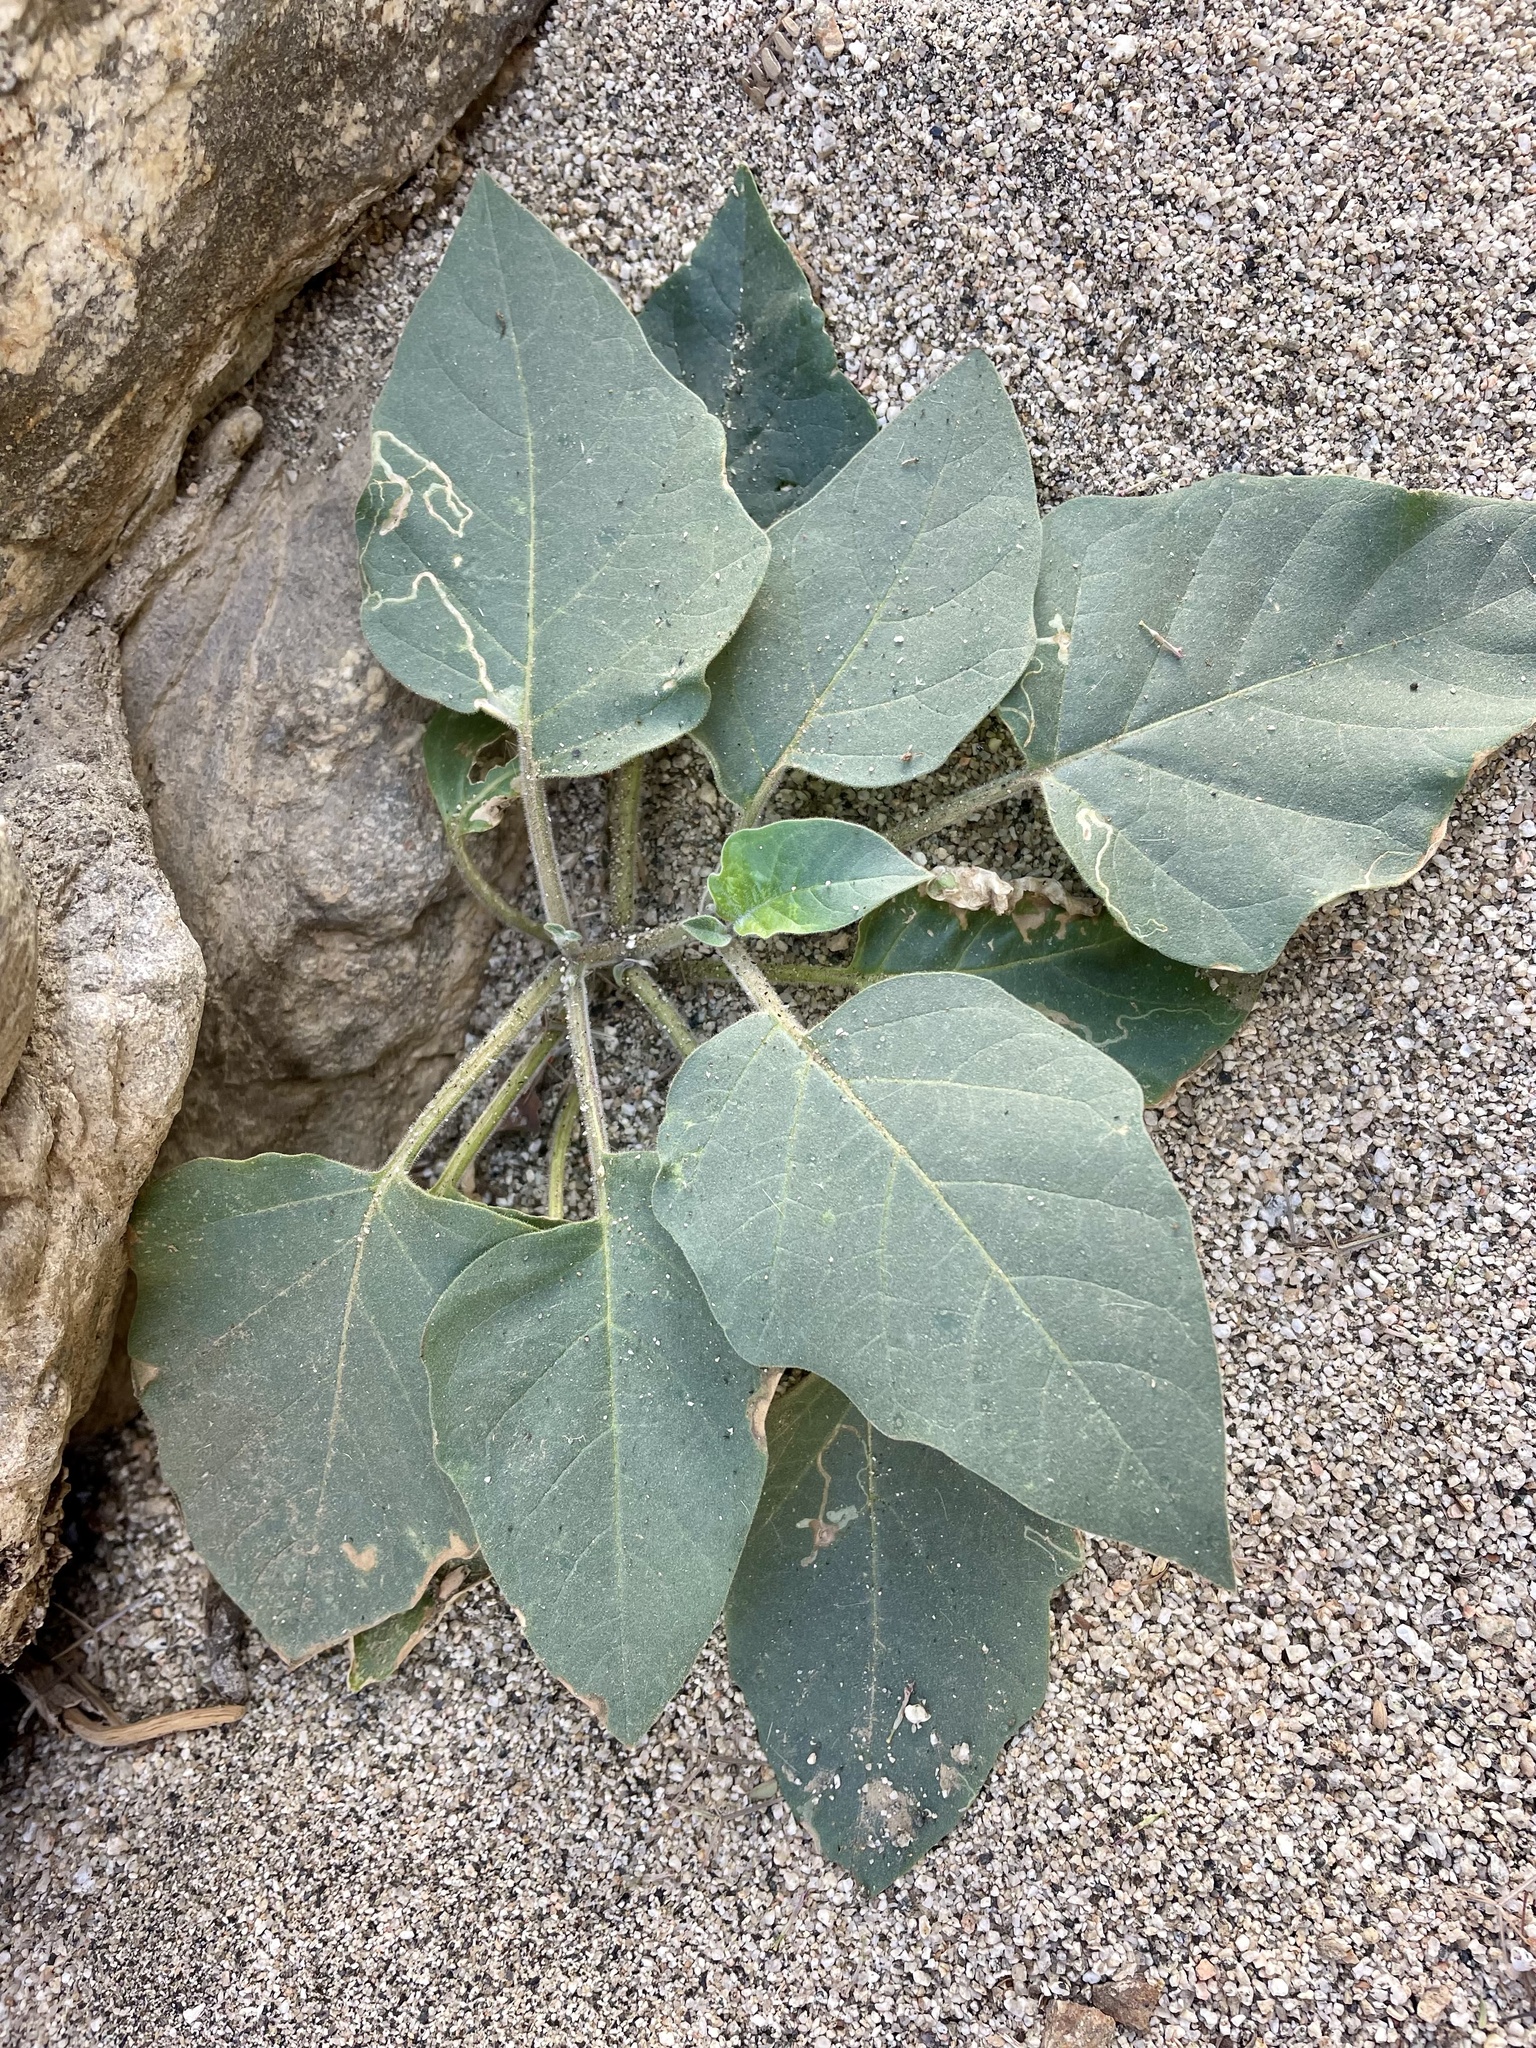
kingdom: Plantae
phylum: Tracheophyta
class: Magnoliopsida
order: Solanales
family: Solanaceae
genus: Datura
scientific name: Datura wrightii
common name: Sacred thorn-apple
